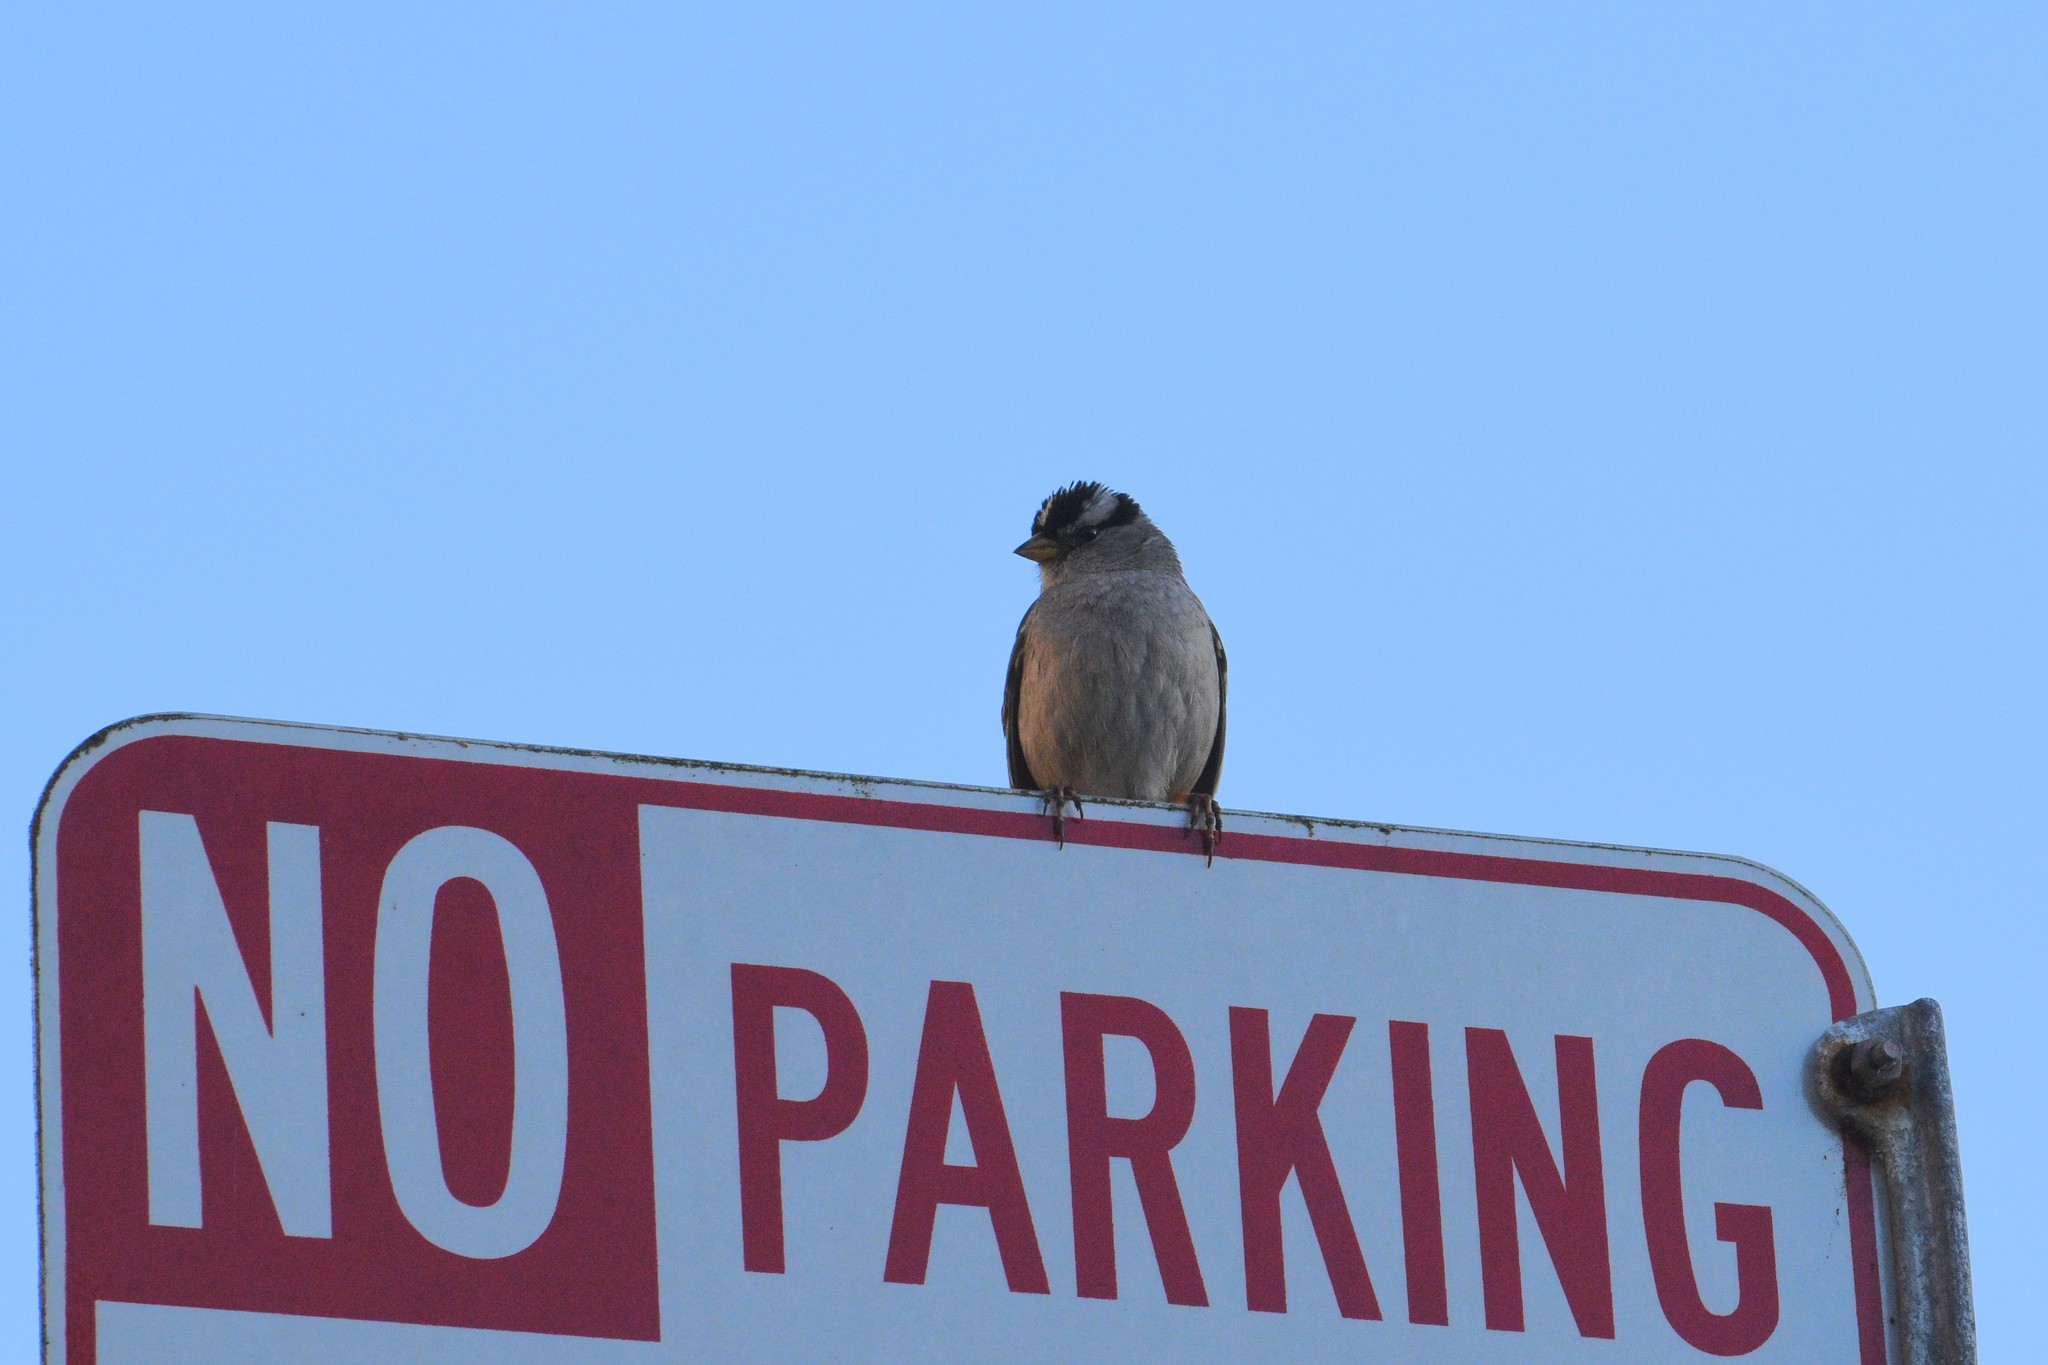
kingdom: Animalia
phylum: Chordata
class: Aves
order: Passeriformes
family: Passerellidae
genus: Zonotrichia
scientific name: Zonotrichia leucophrys
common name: White-crowned sparrow
